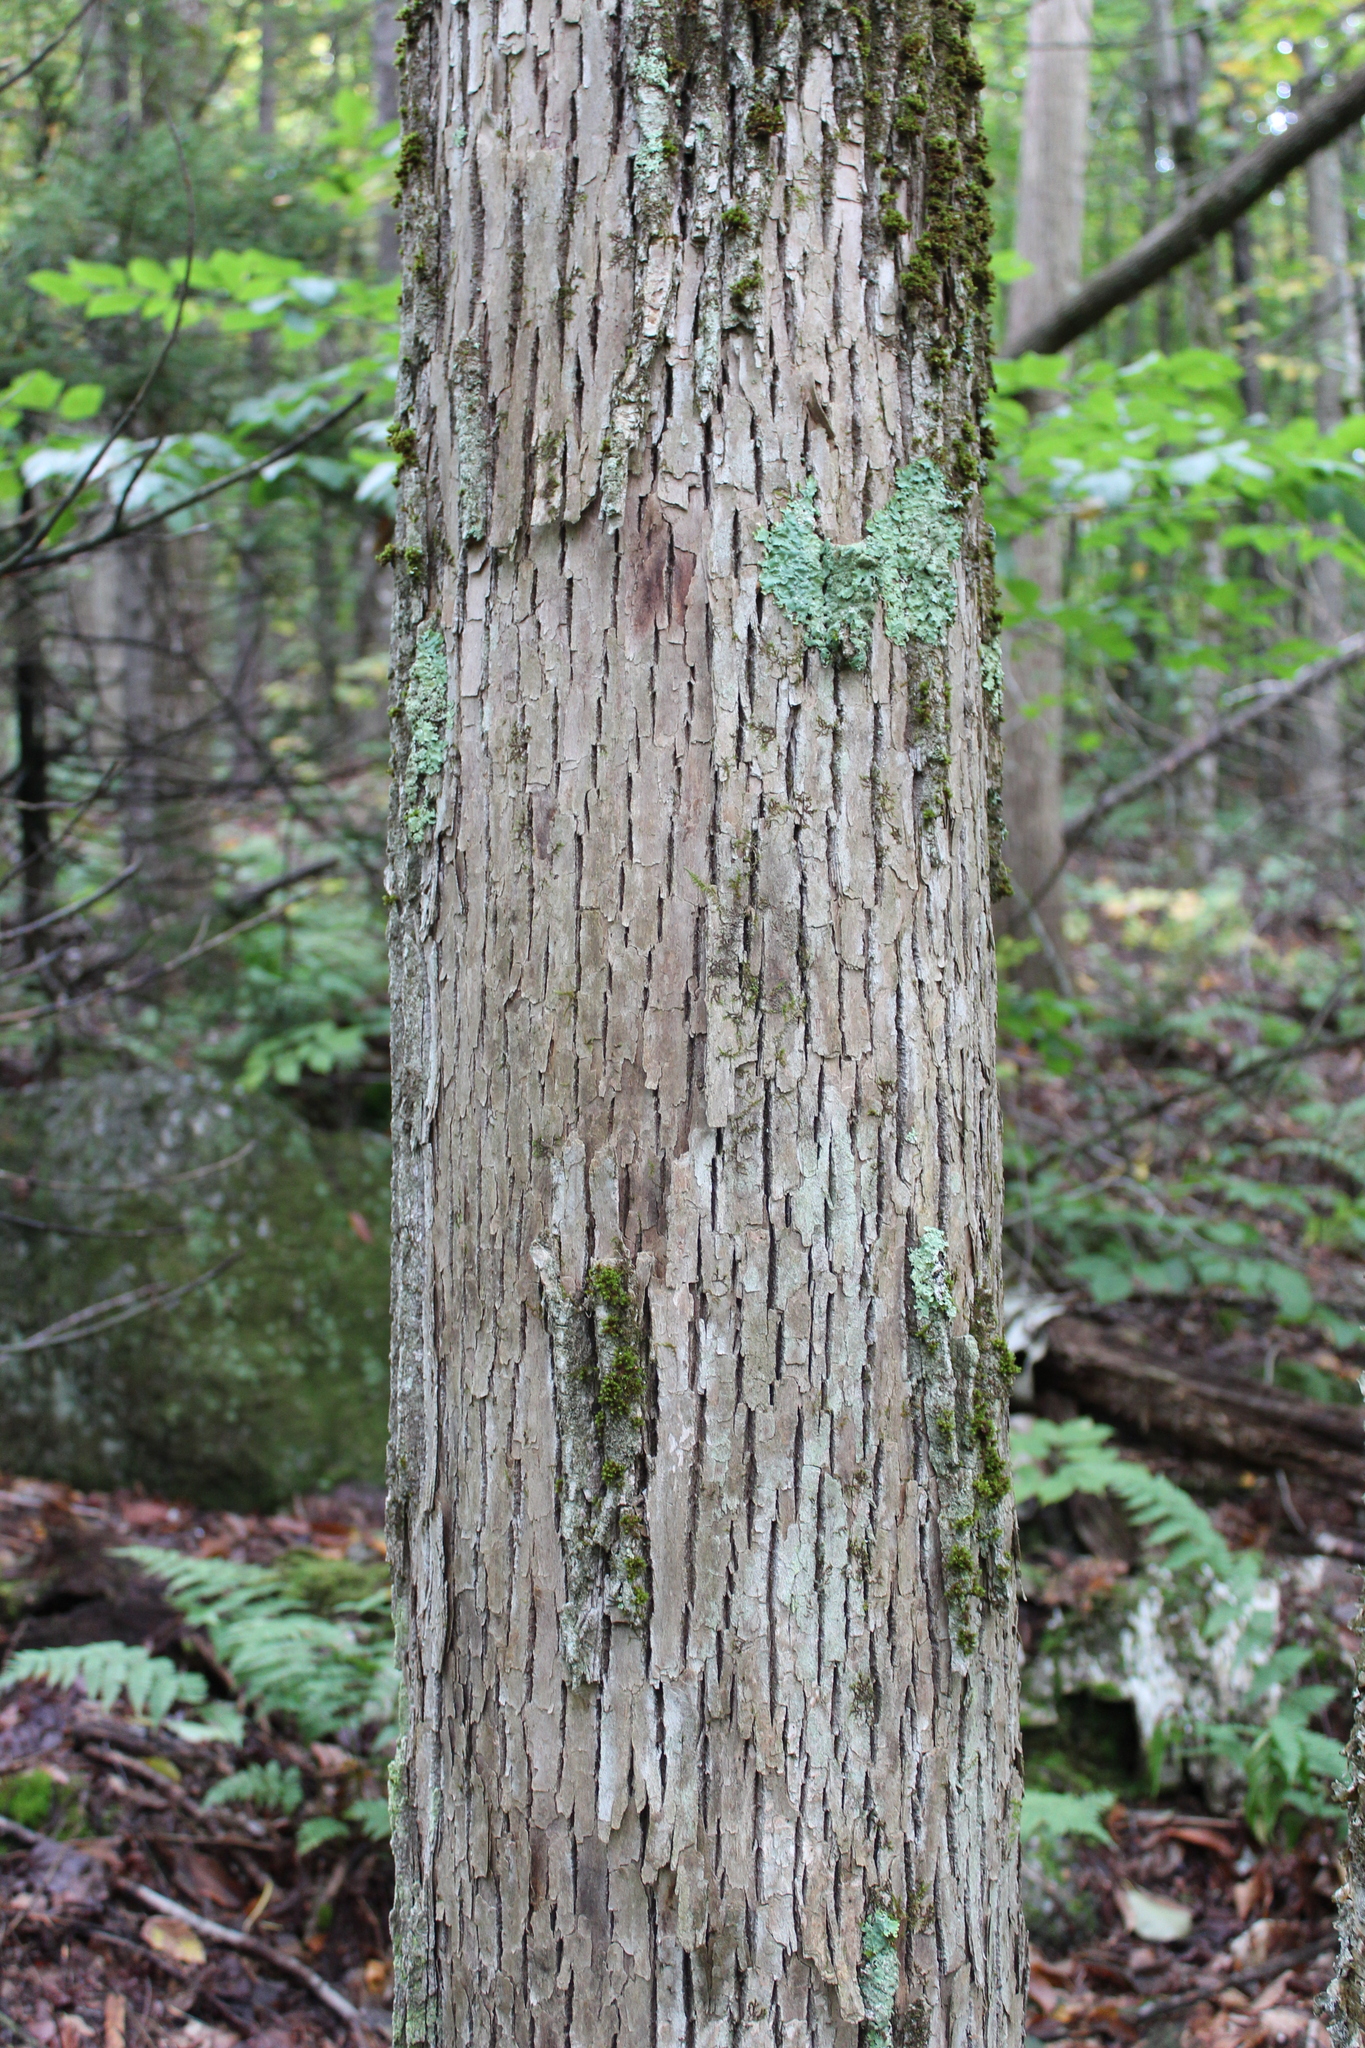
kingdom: Plantae
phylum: Tracheophyta
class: Magnoliopsida
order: Lamiales
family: Oleaceae
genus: Fraxinus
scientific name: Fraxinus americana
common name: White ash
